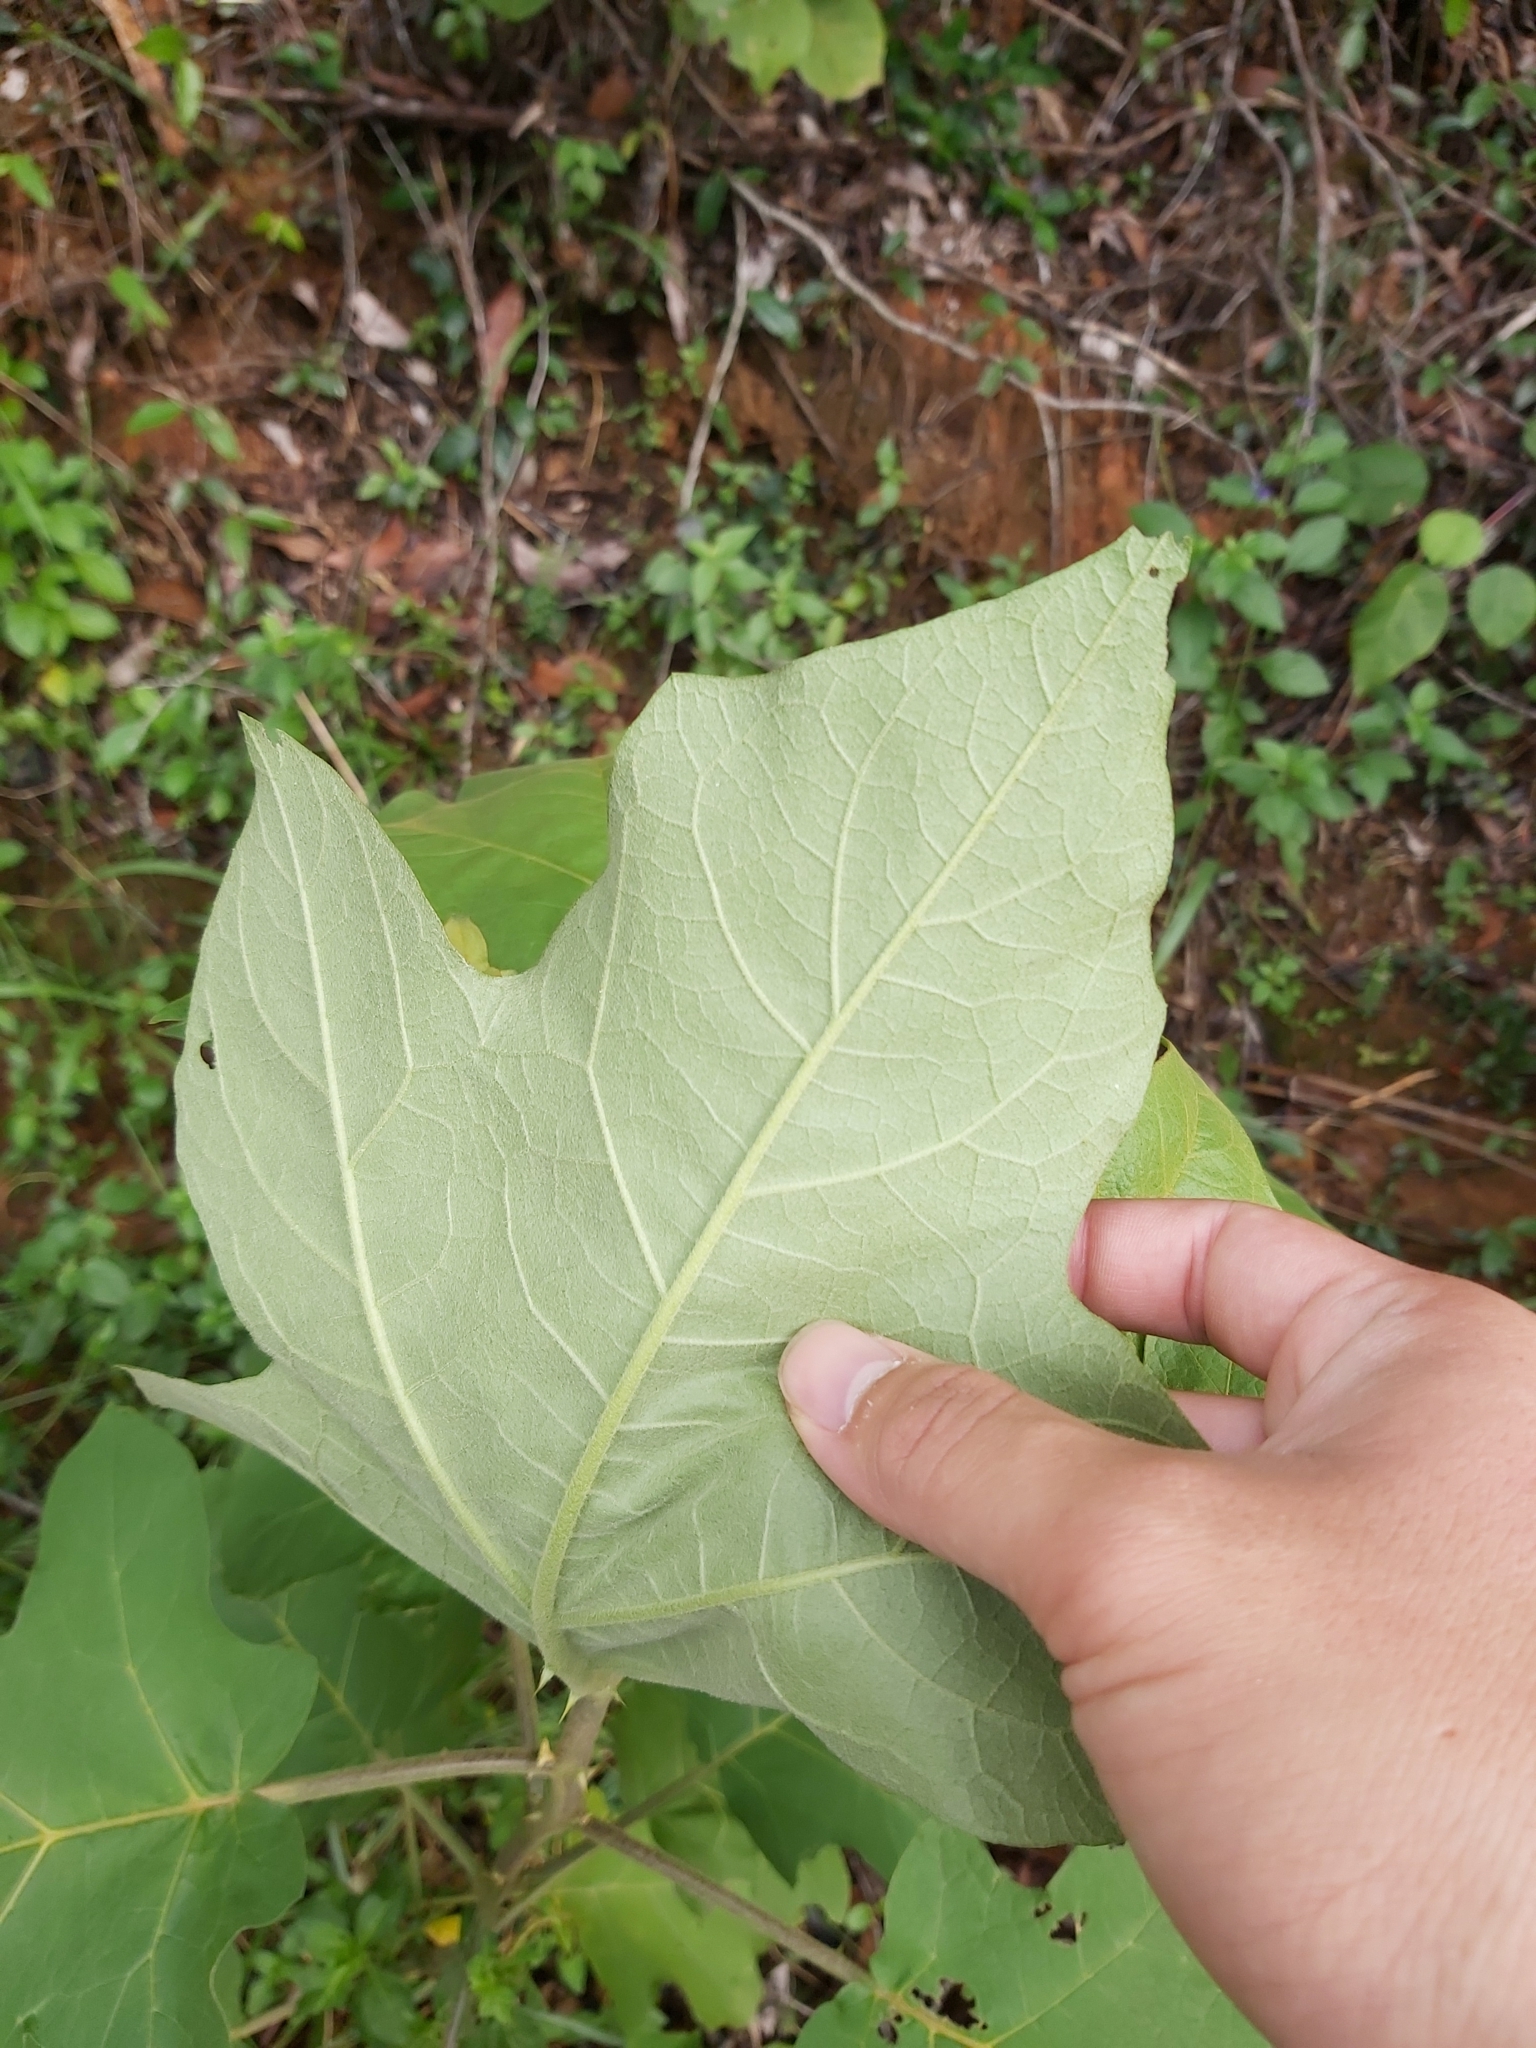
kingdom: Plantae
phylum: Tracheophyta
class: Magnoliopsida
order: Solanales
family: Solanaceae
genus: Solanum
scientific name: Solanum torvum
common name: Turkey berry
